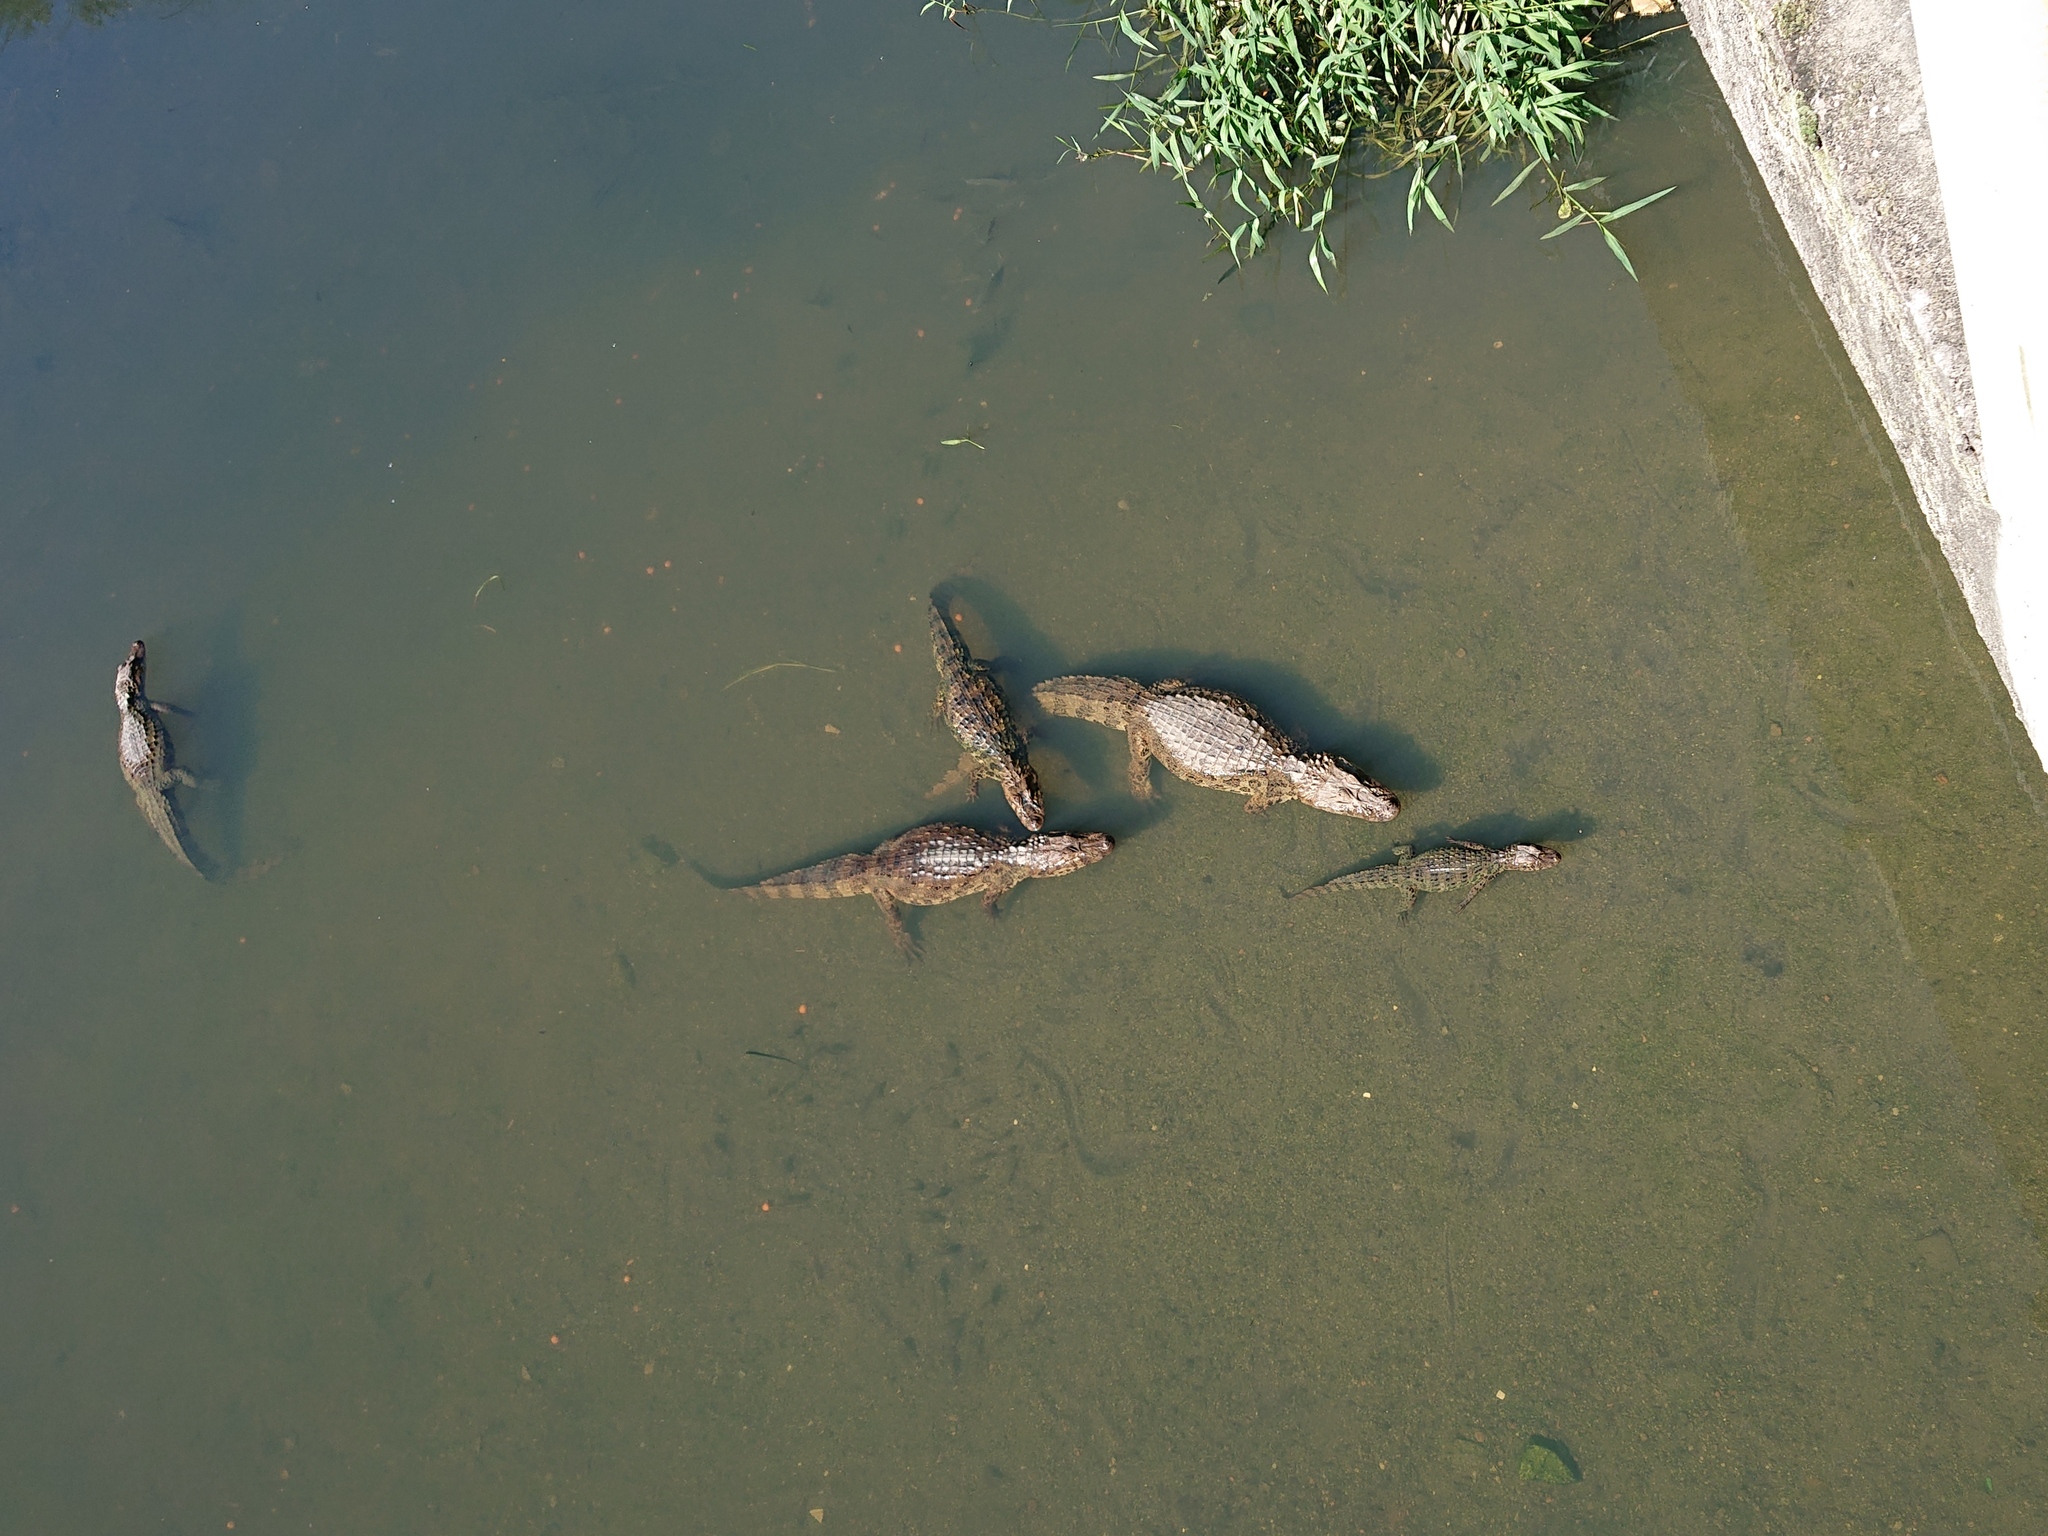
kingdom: Animalia
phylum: Chordata
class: Crocodylia
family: Alligatoridae
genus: Caiman
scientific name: Caiman latirostris
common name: Broad-snouted caiman
